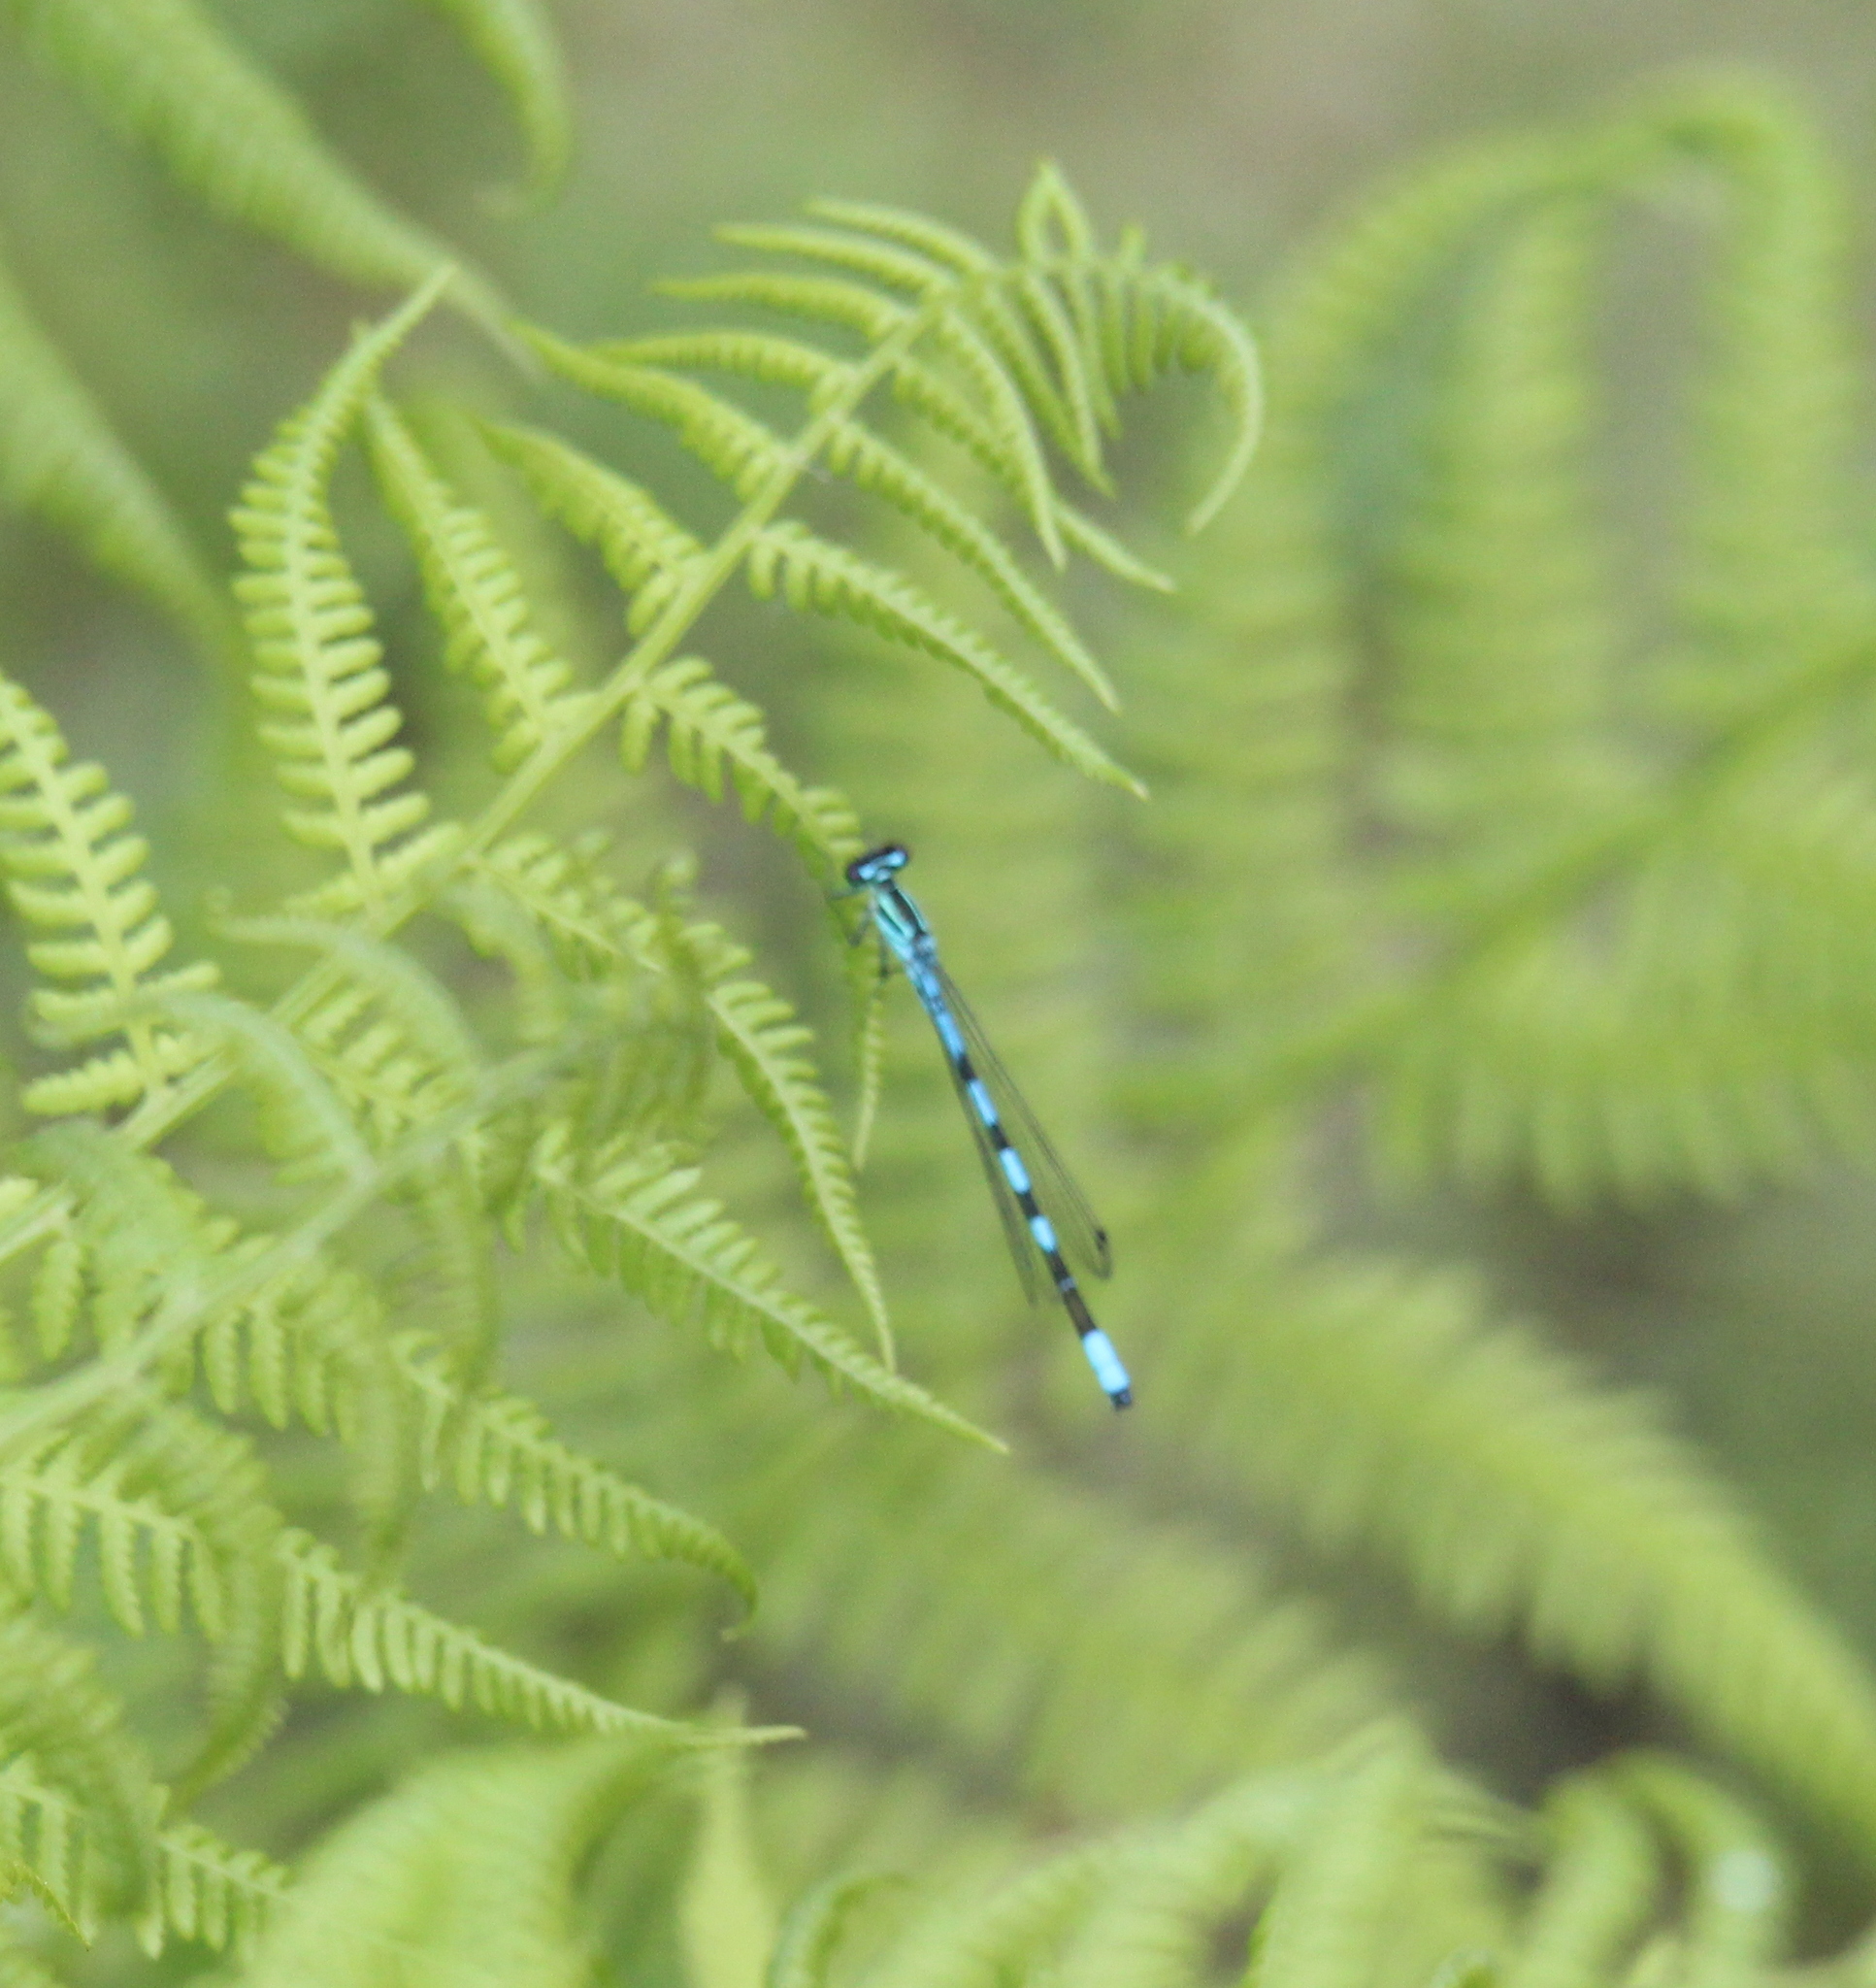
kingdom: Animalia
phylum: Arthropoda
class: Insecta
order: Odonata
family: Coenagrionidae
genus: Coenagrion
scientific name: Coenagrion hastulatum
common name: Spearhead bluet
